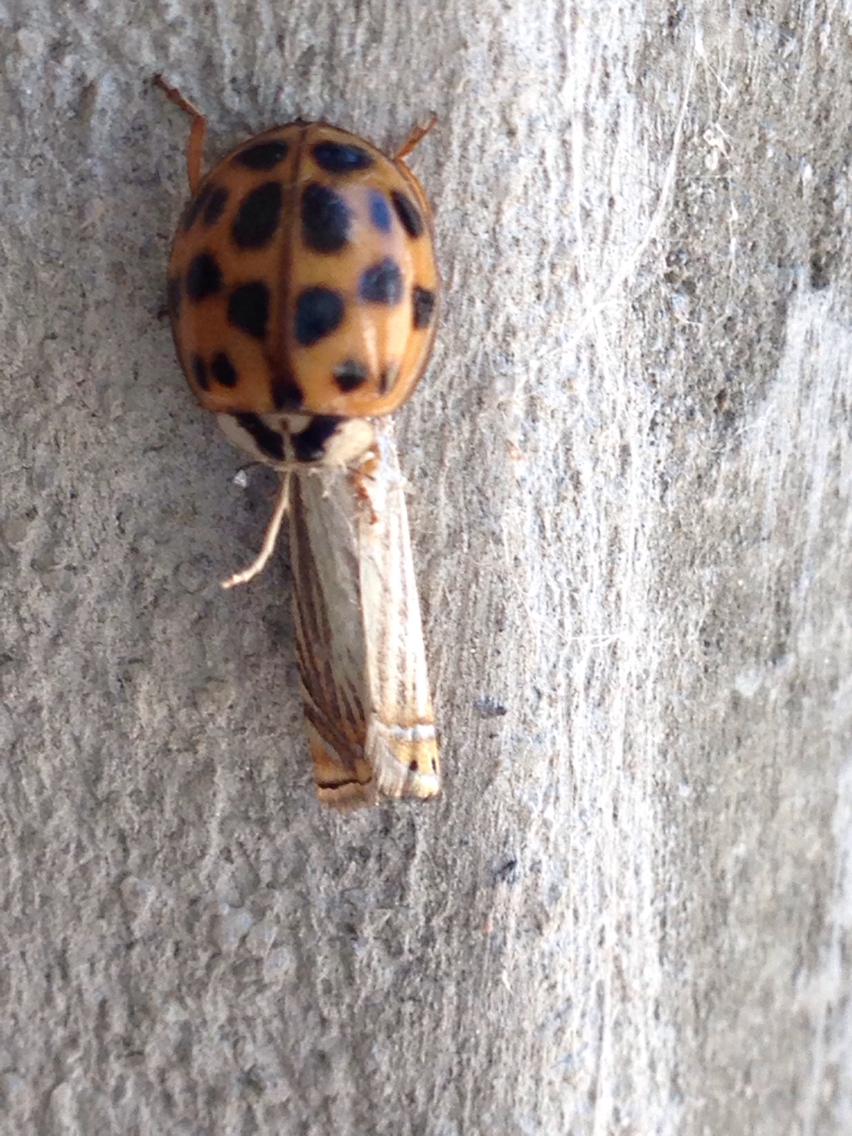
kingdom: Animalia
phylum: Arthropoda
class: Insecta
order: Coleoptera
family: Coccinellidae
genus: Harmonia
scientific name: Harmonia axyridis
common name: Harlequin ladybird
